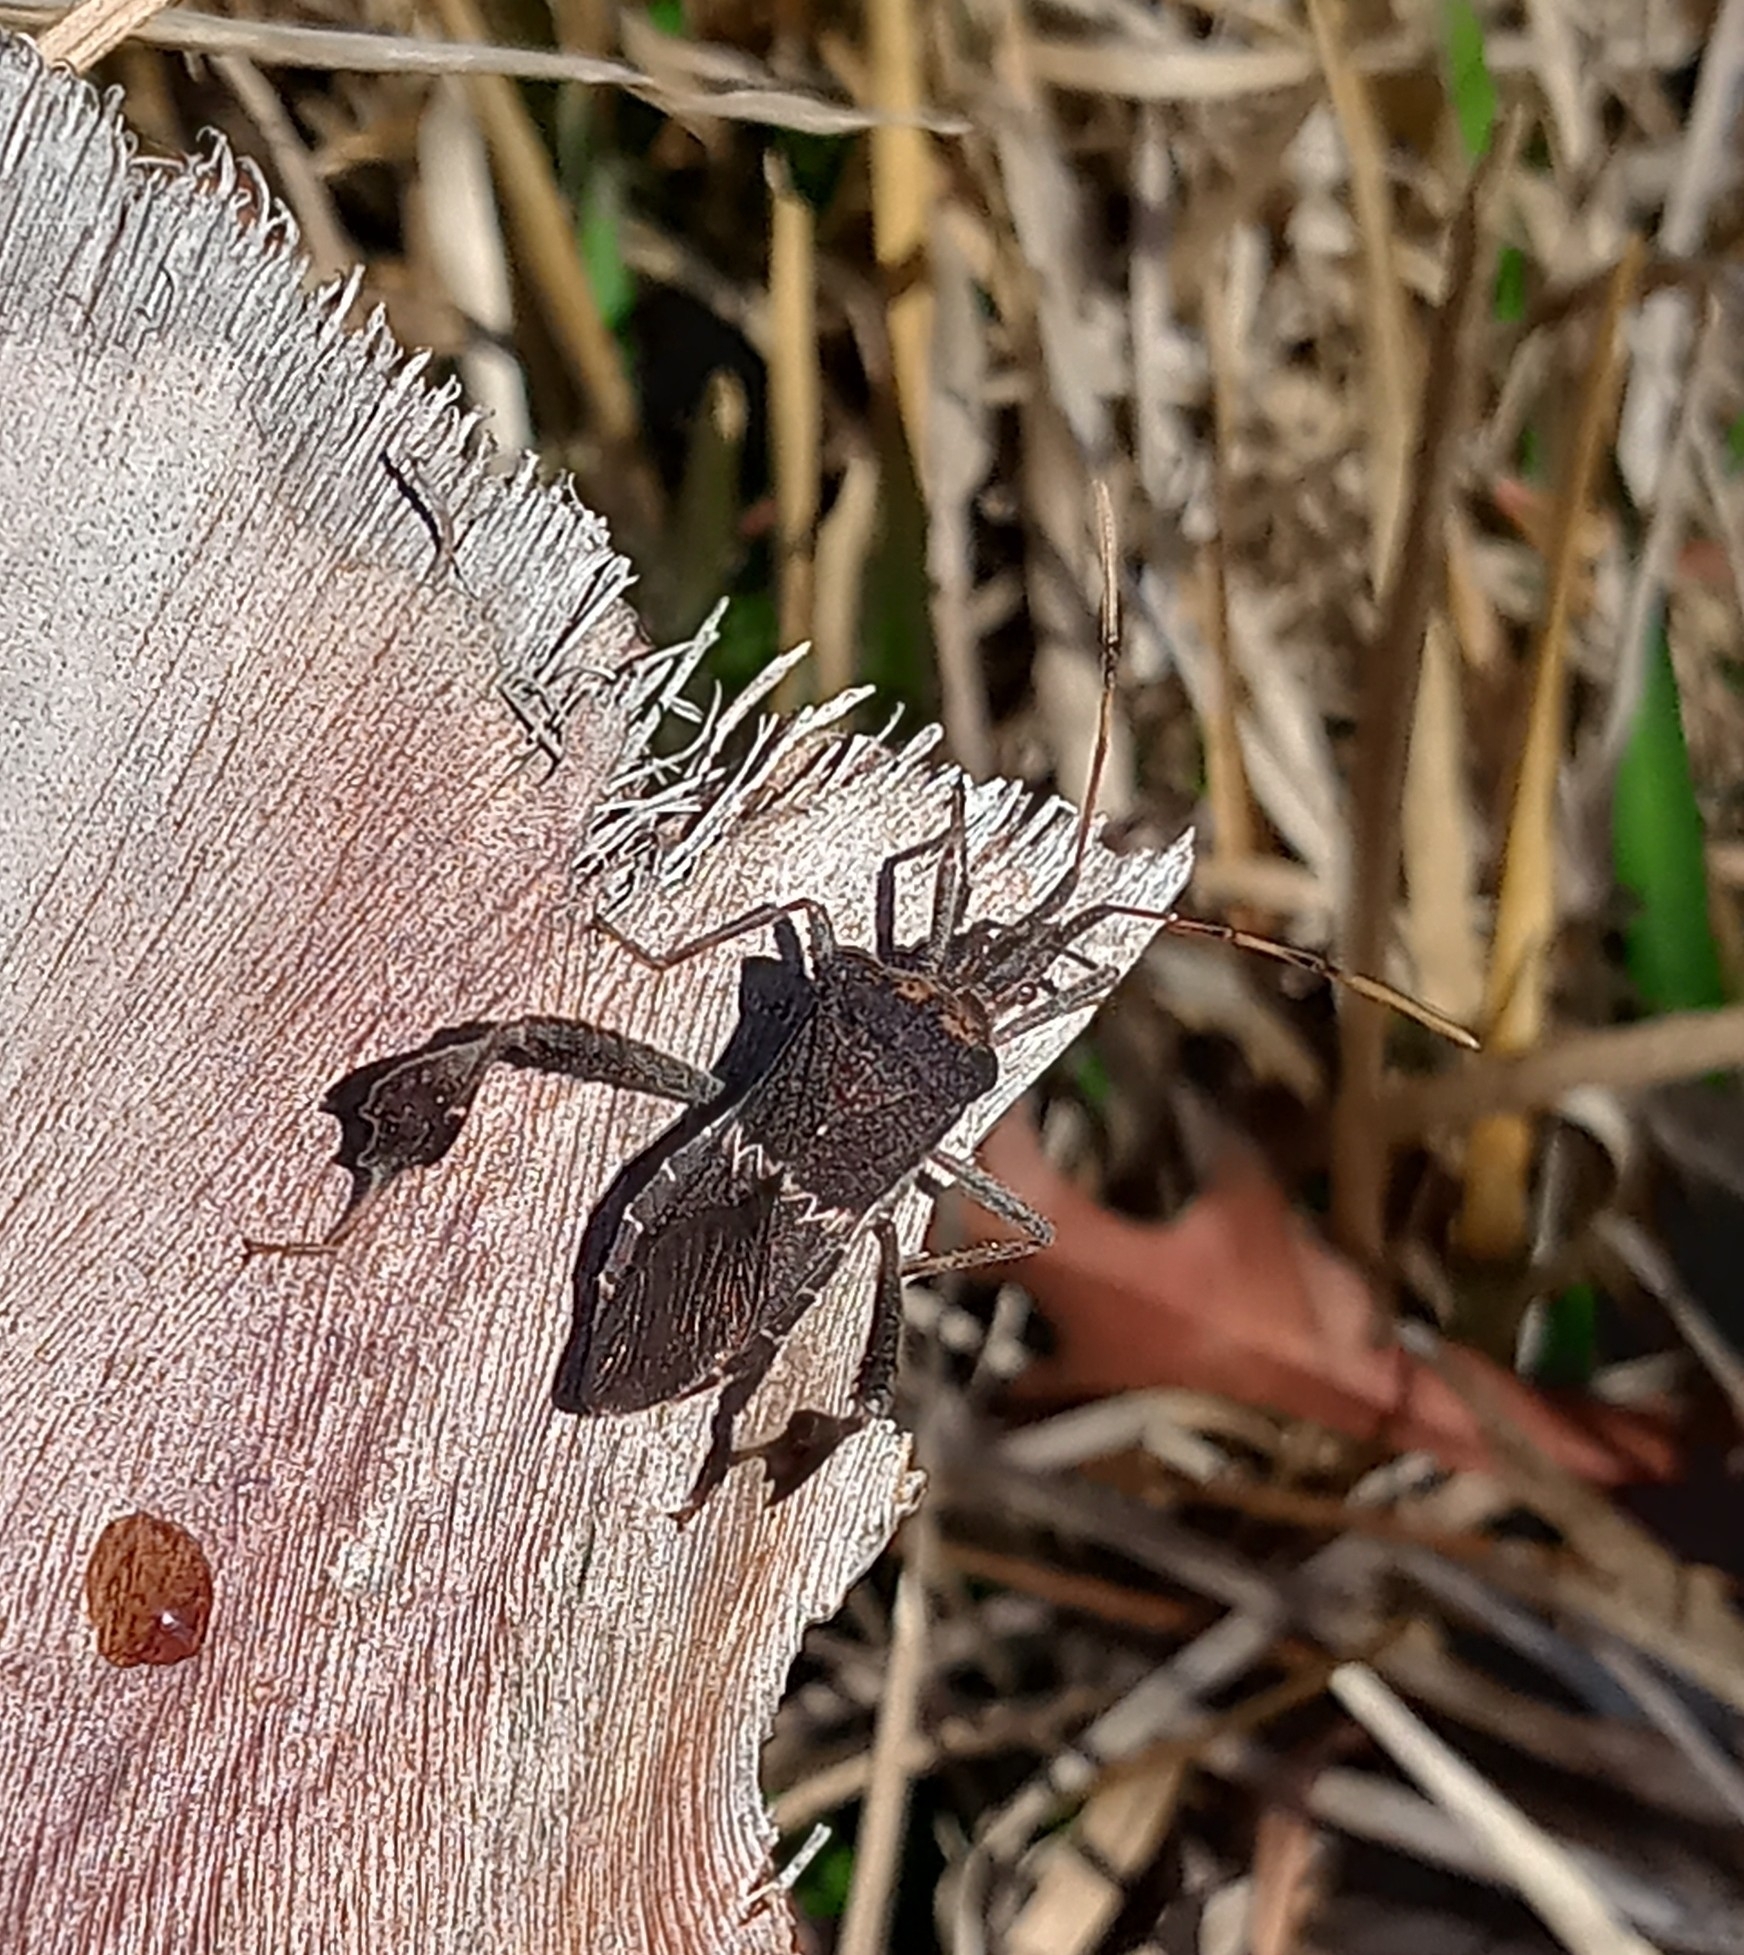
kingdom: Animalia
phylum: Arthropoda
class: Insecta
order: Hemiptera
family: Coreidae
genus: Leptoglossus
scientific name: Leptoglossus zonatus
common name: Large-legged bug
